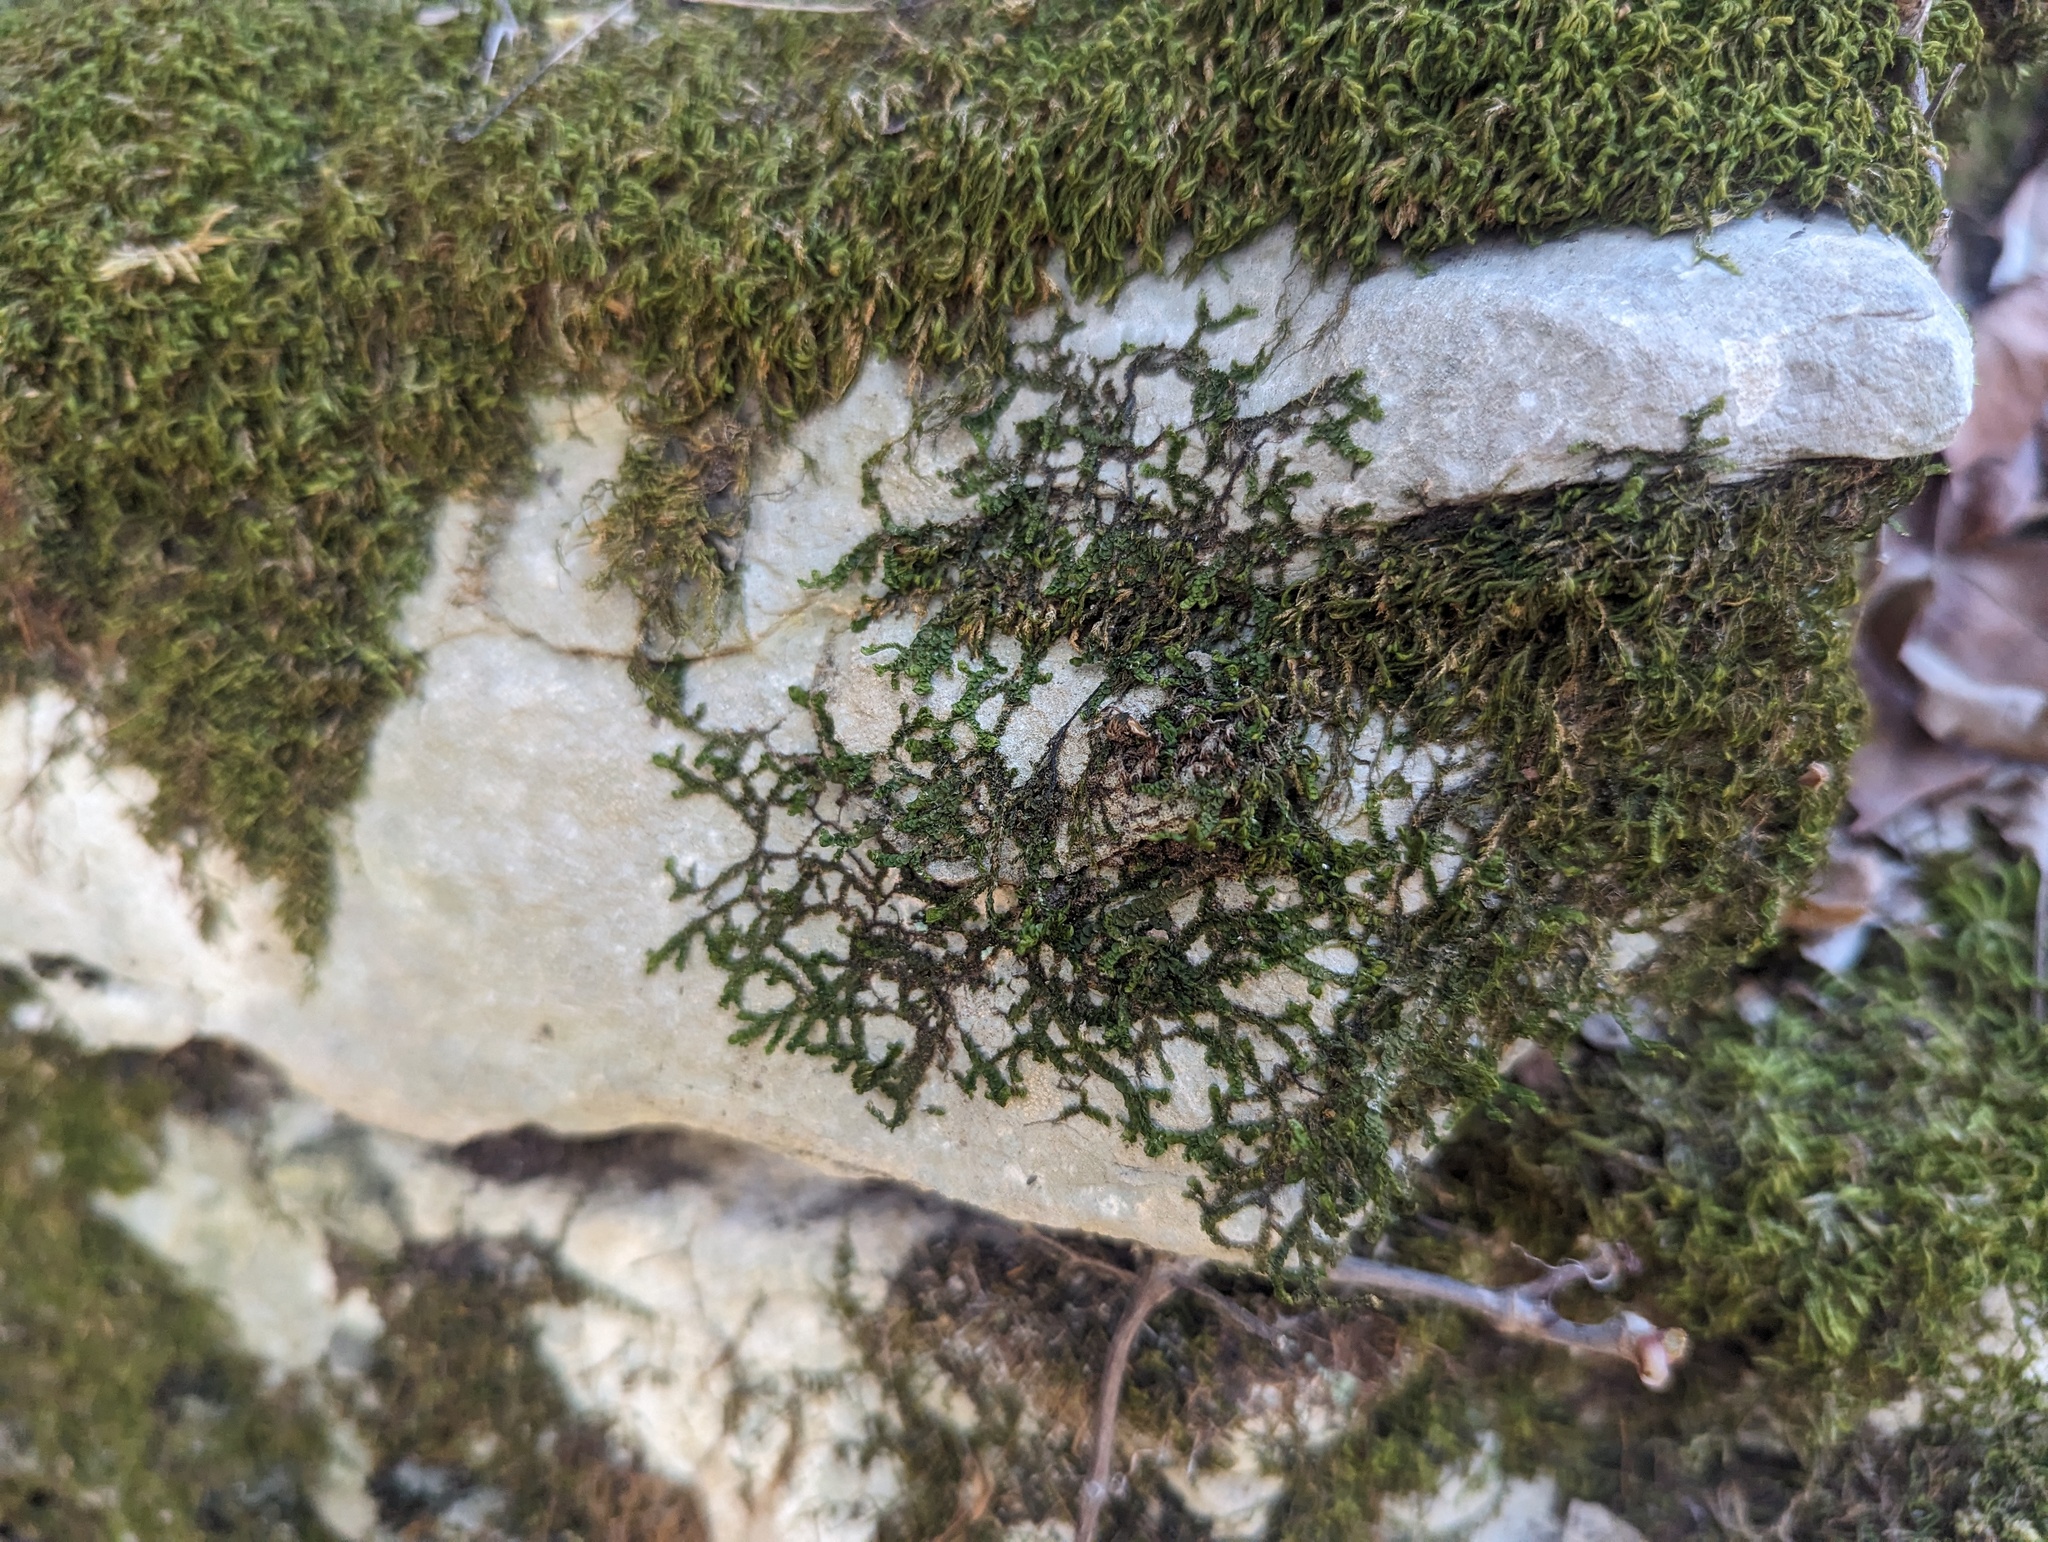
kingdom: Plantae
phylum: Marchantiophyta
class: Jungermanniopsida
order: Porellales
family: Porellaceae
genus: Porella
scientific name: Porella platyphylla
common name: Wall scalewort
